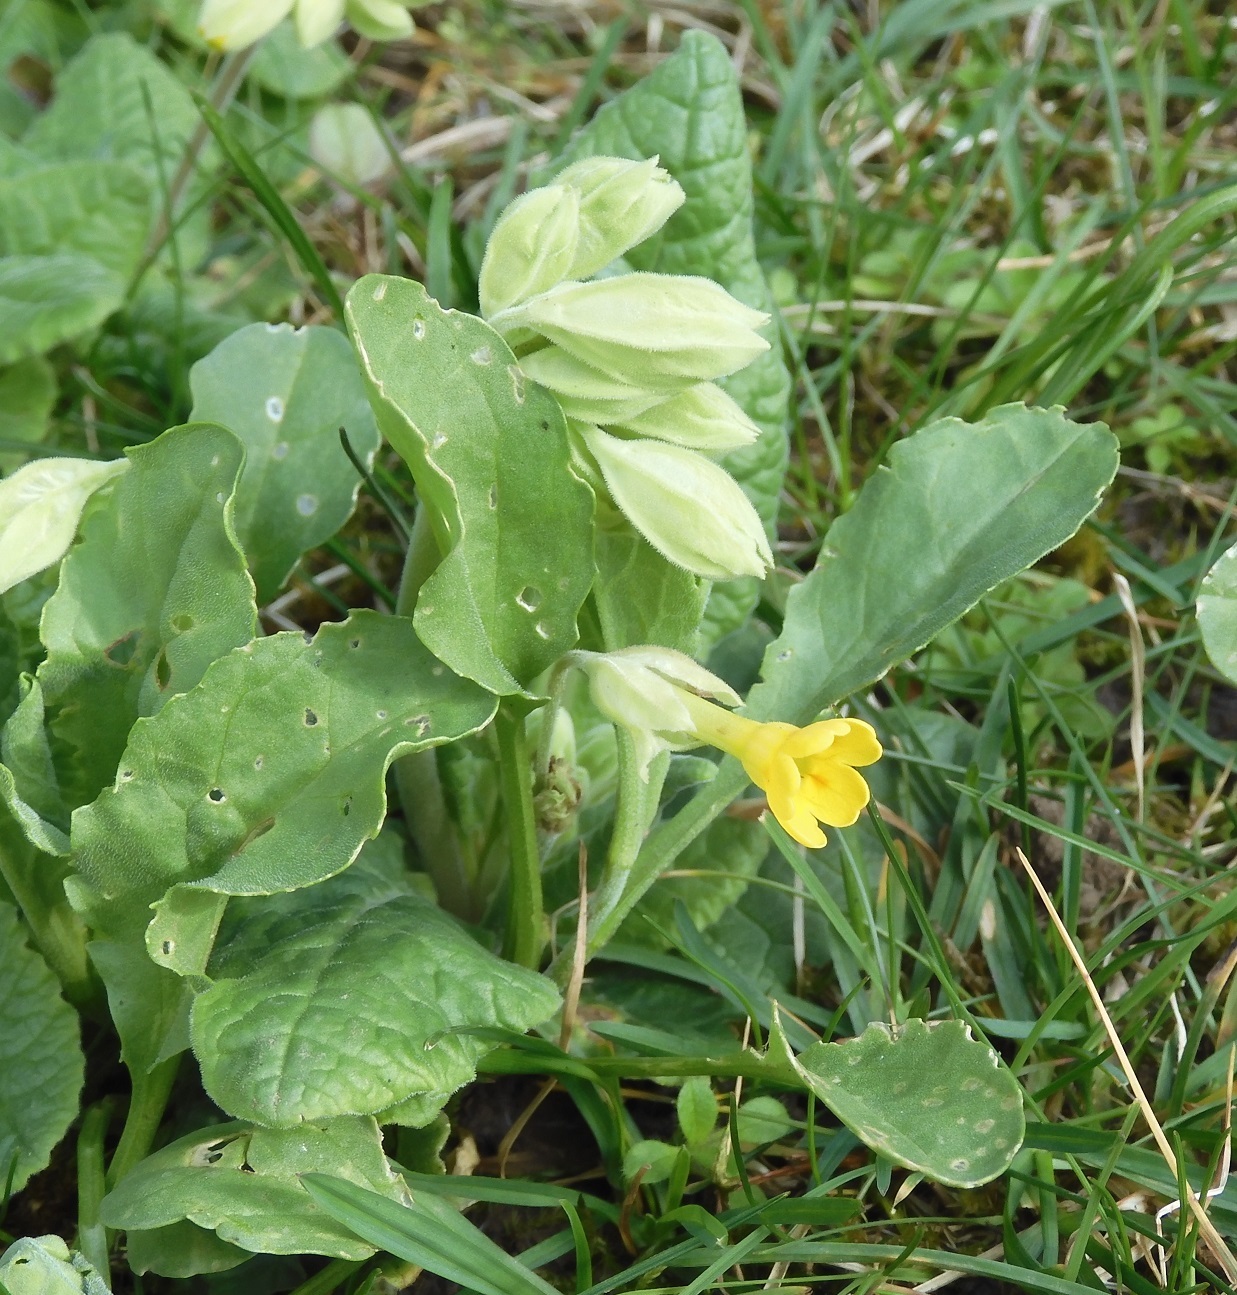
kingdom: Plantae
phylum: Tracheophyta
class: Magnoliopsida
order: Ericales
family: Primulaceae
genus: Primula
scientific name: Primula veris
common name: Cowslip
